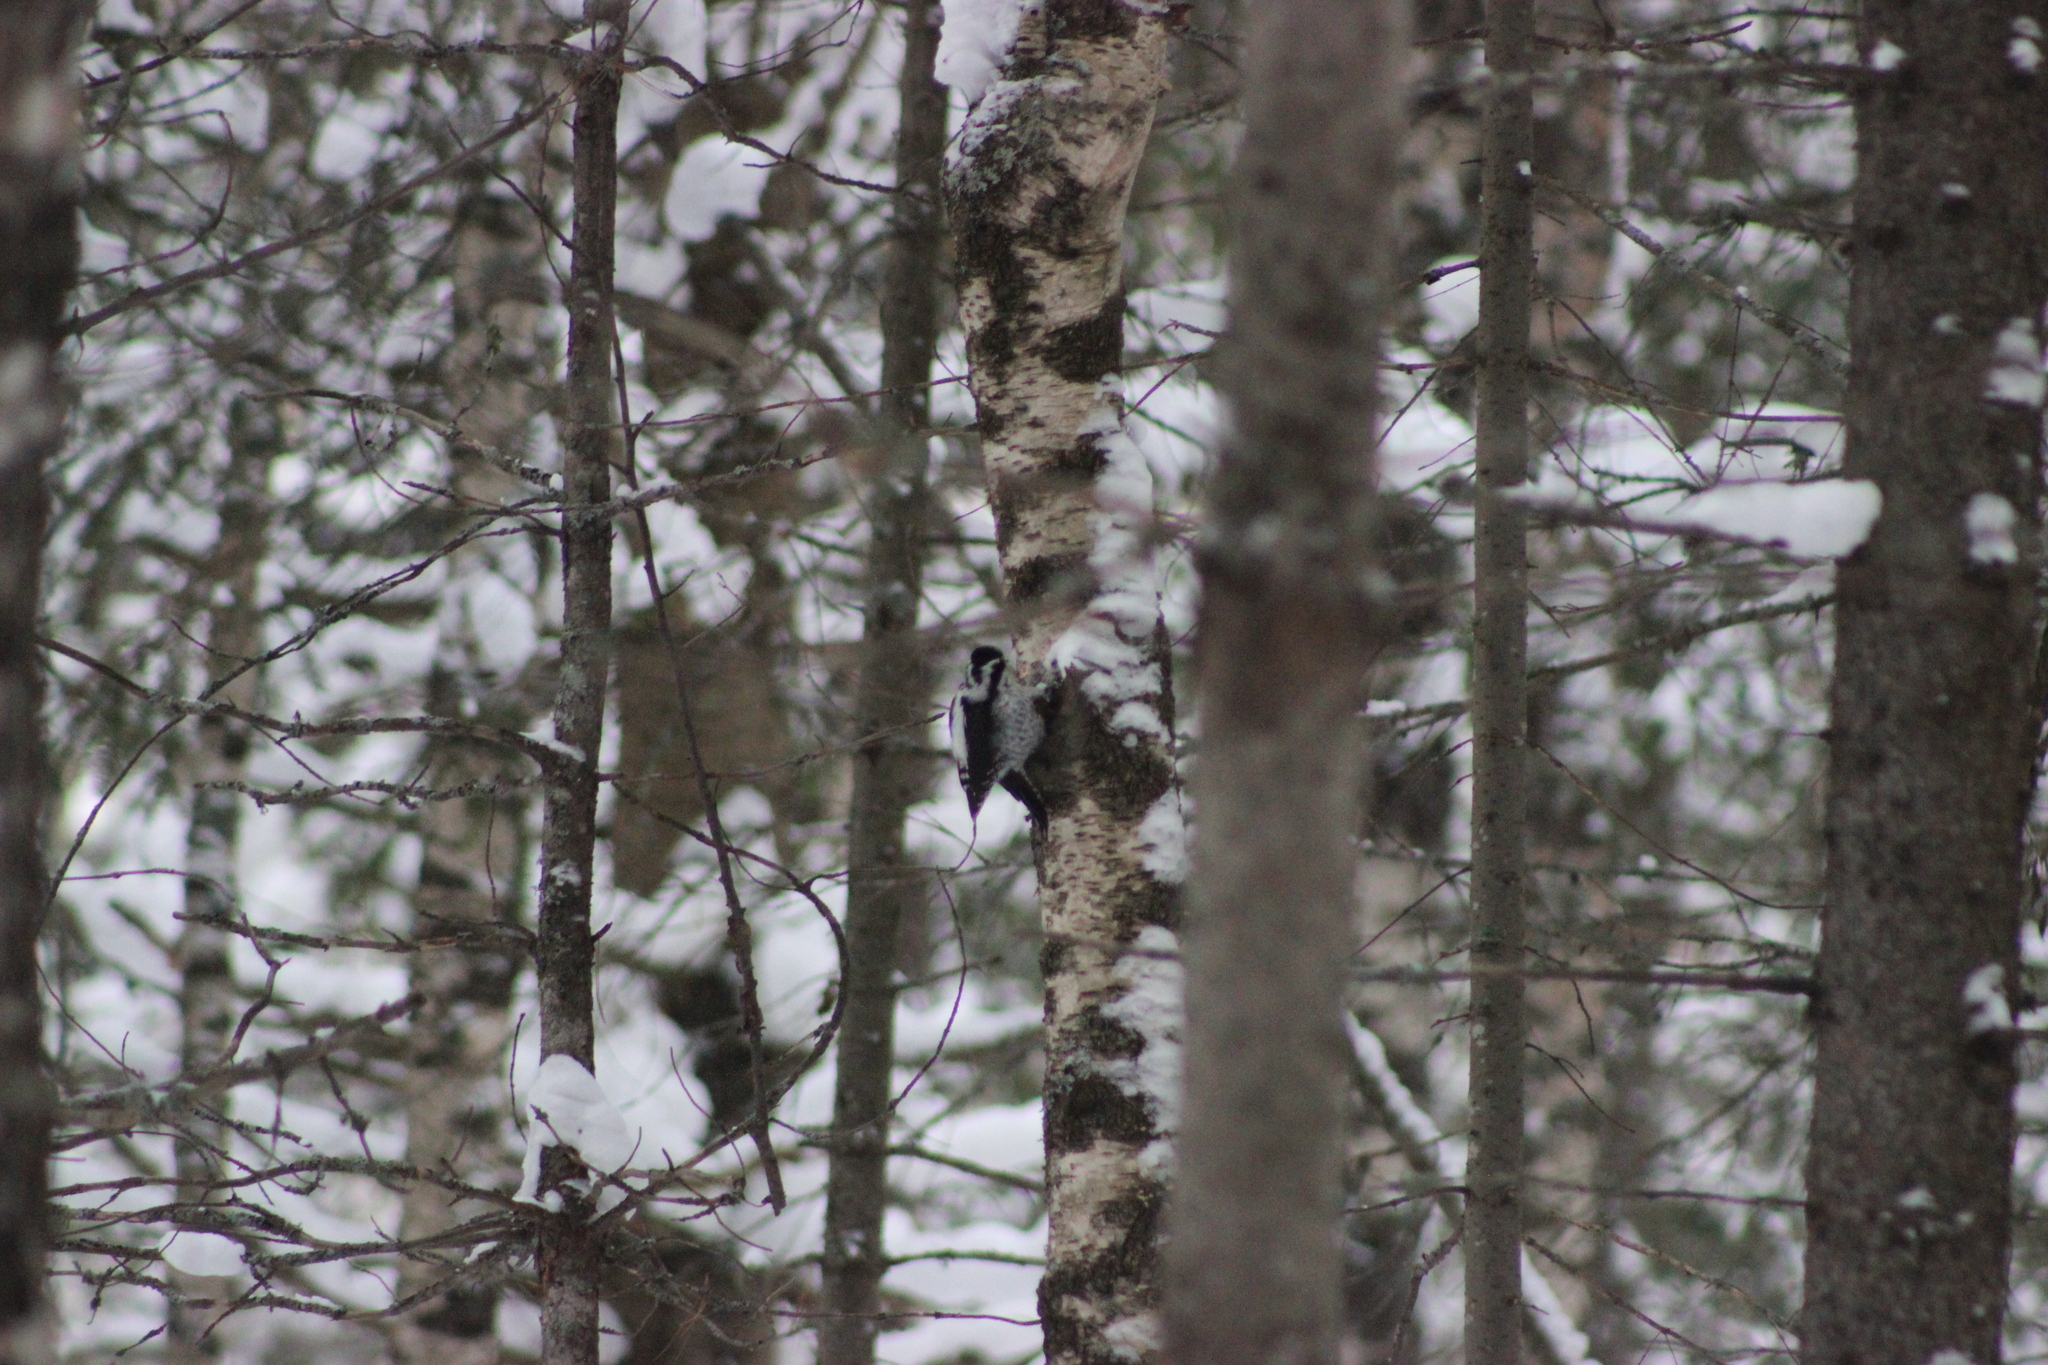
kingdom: Animalia
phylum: Chordata
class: Aves
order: Piciformes
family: Picidae
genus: Picoides
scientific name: Picoides tridactylus
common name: Eurasian three-toed woodpecker
